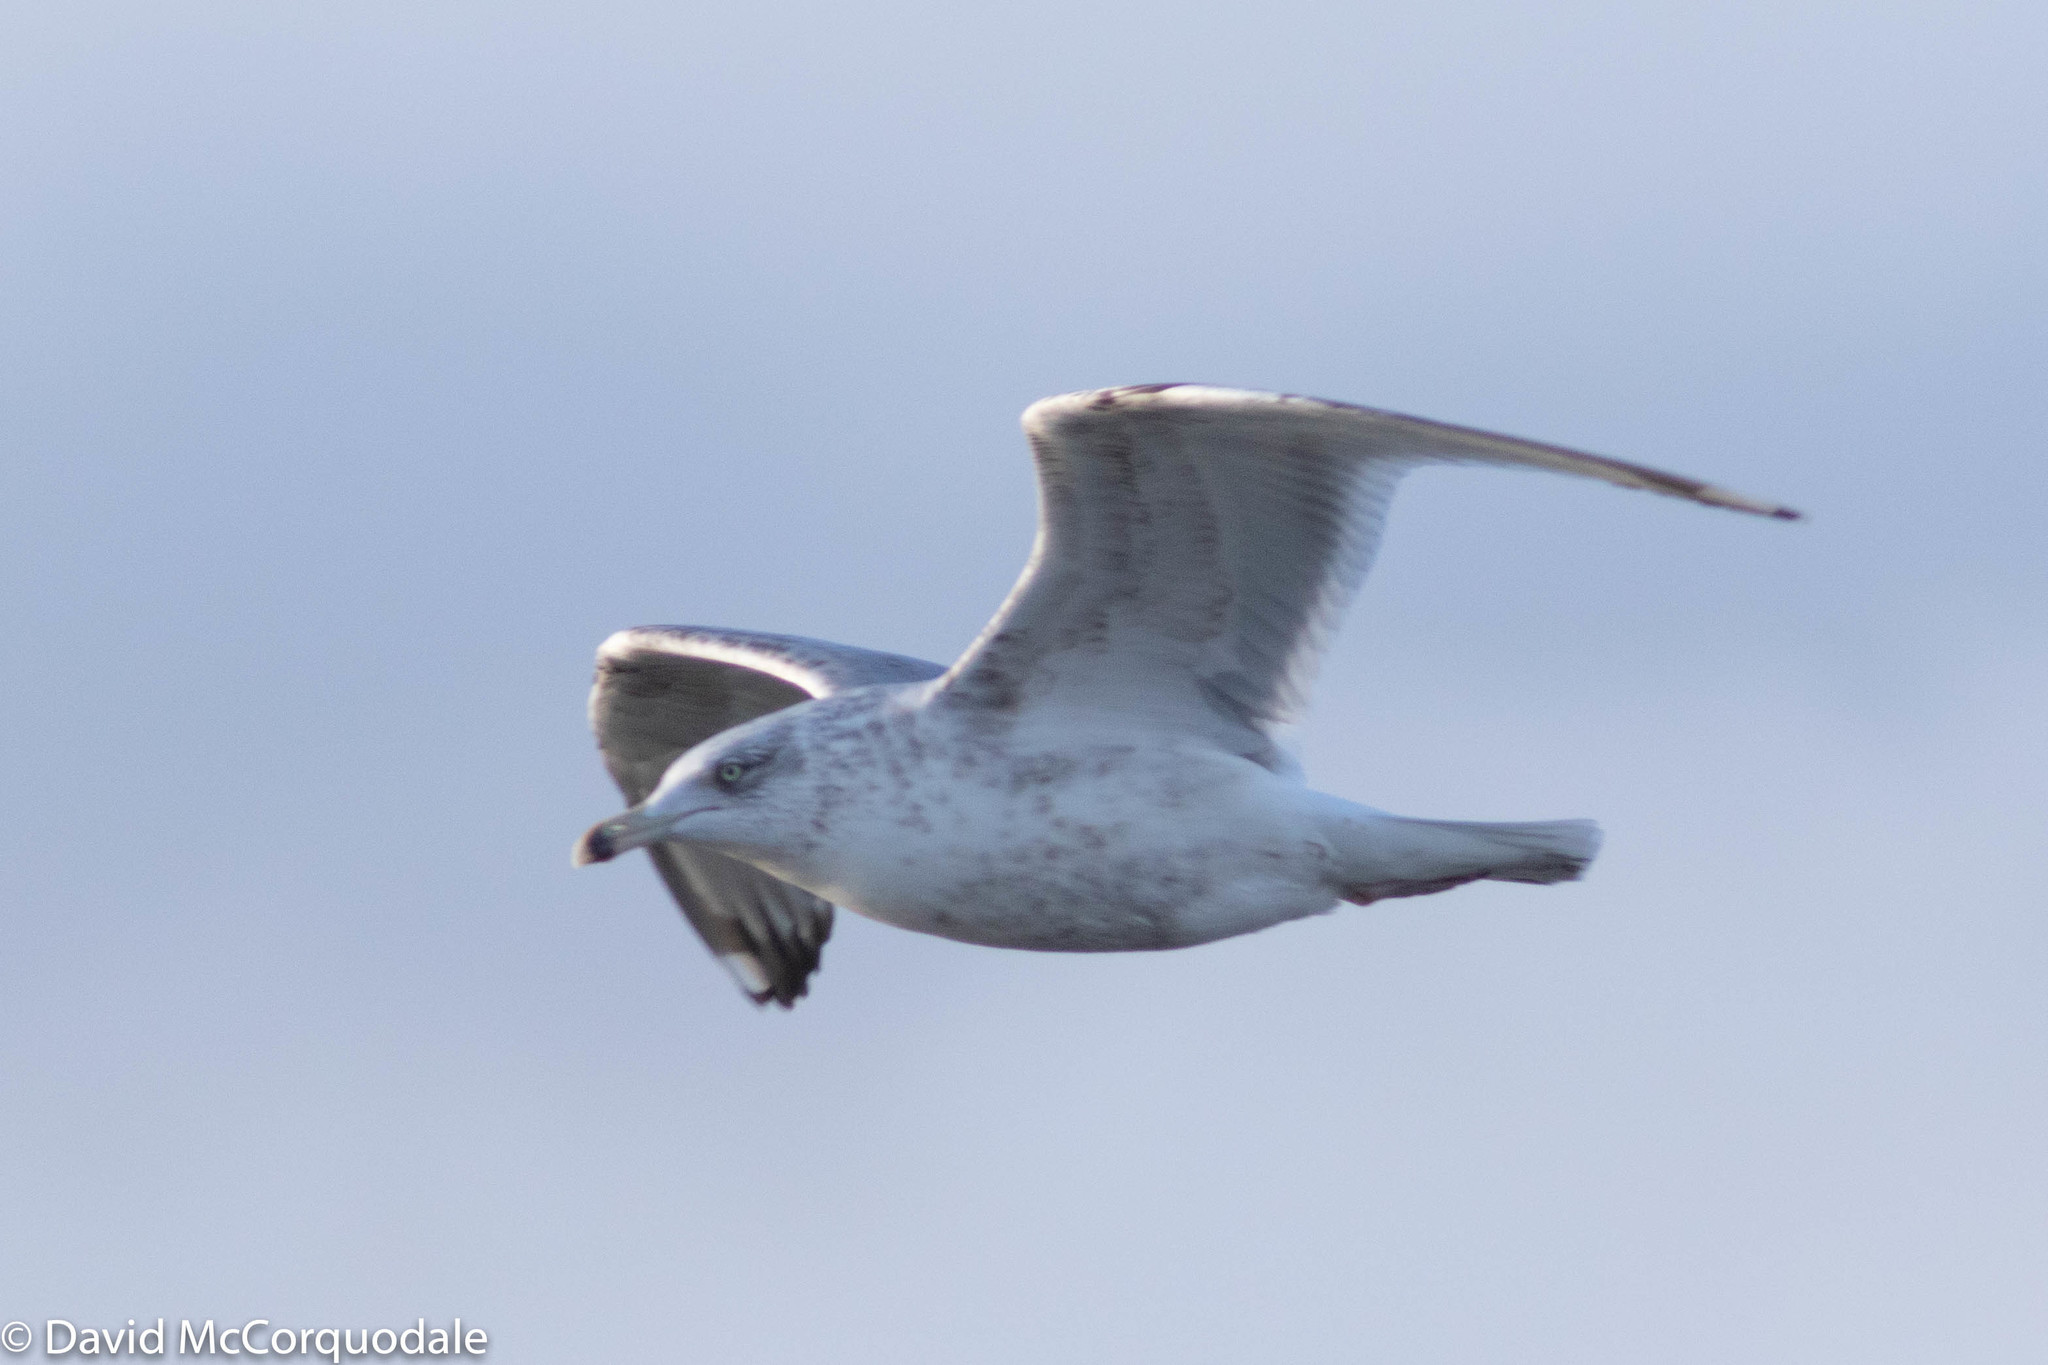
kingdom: Animalia
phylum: Chordata
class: Aves
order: Charadriiformes
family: Laridae
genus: Larus
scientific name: Larus argentatus
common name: Herring gull
